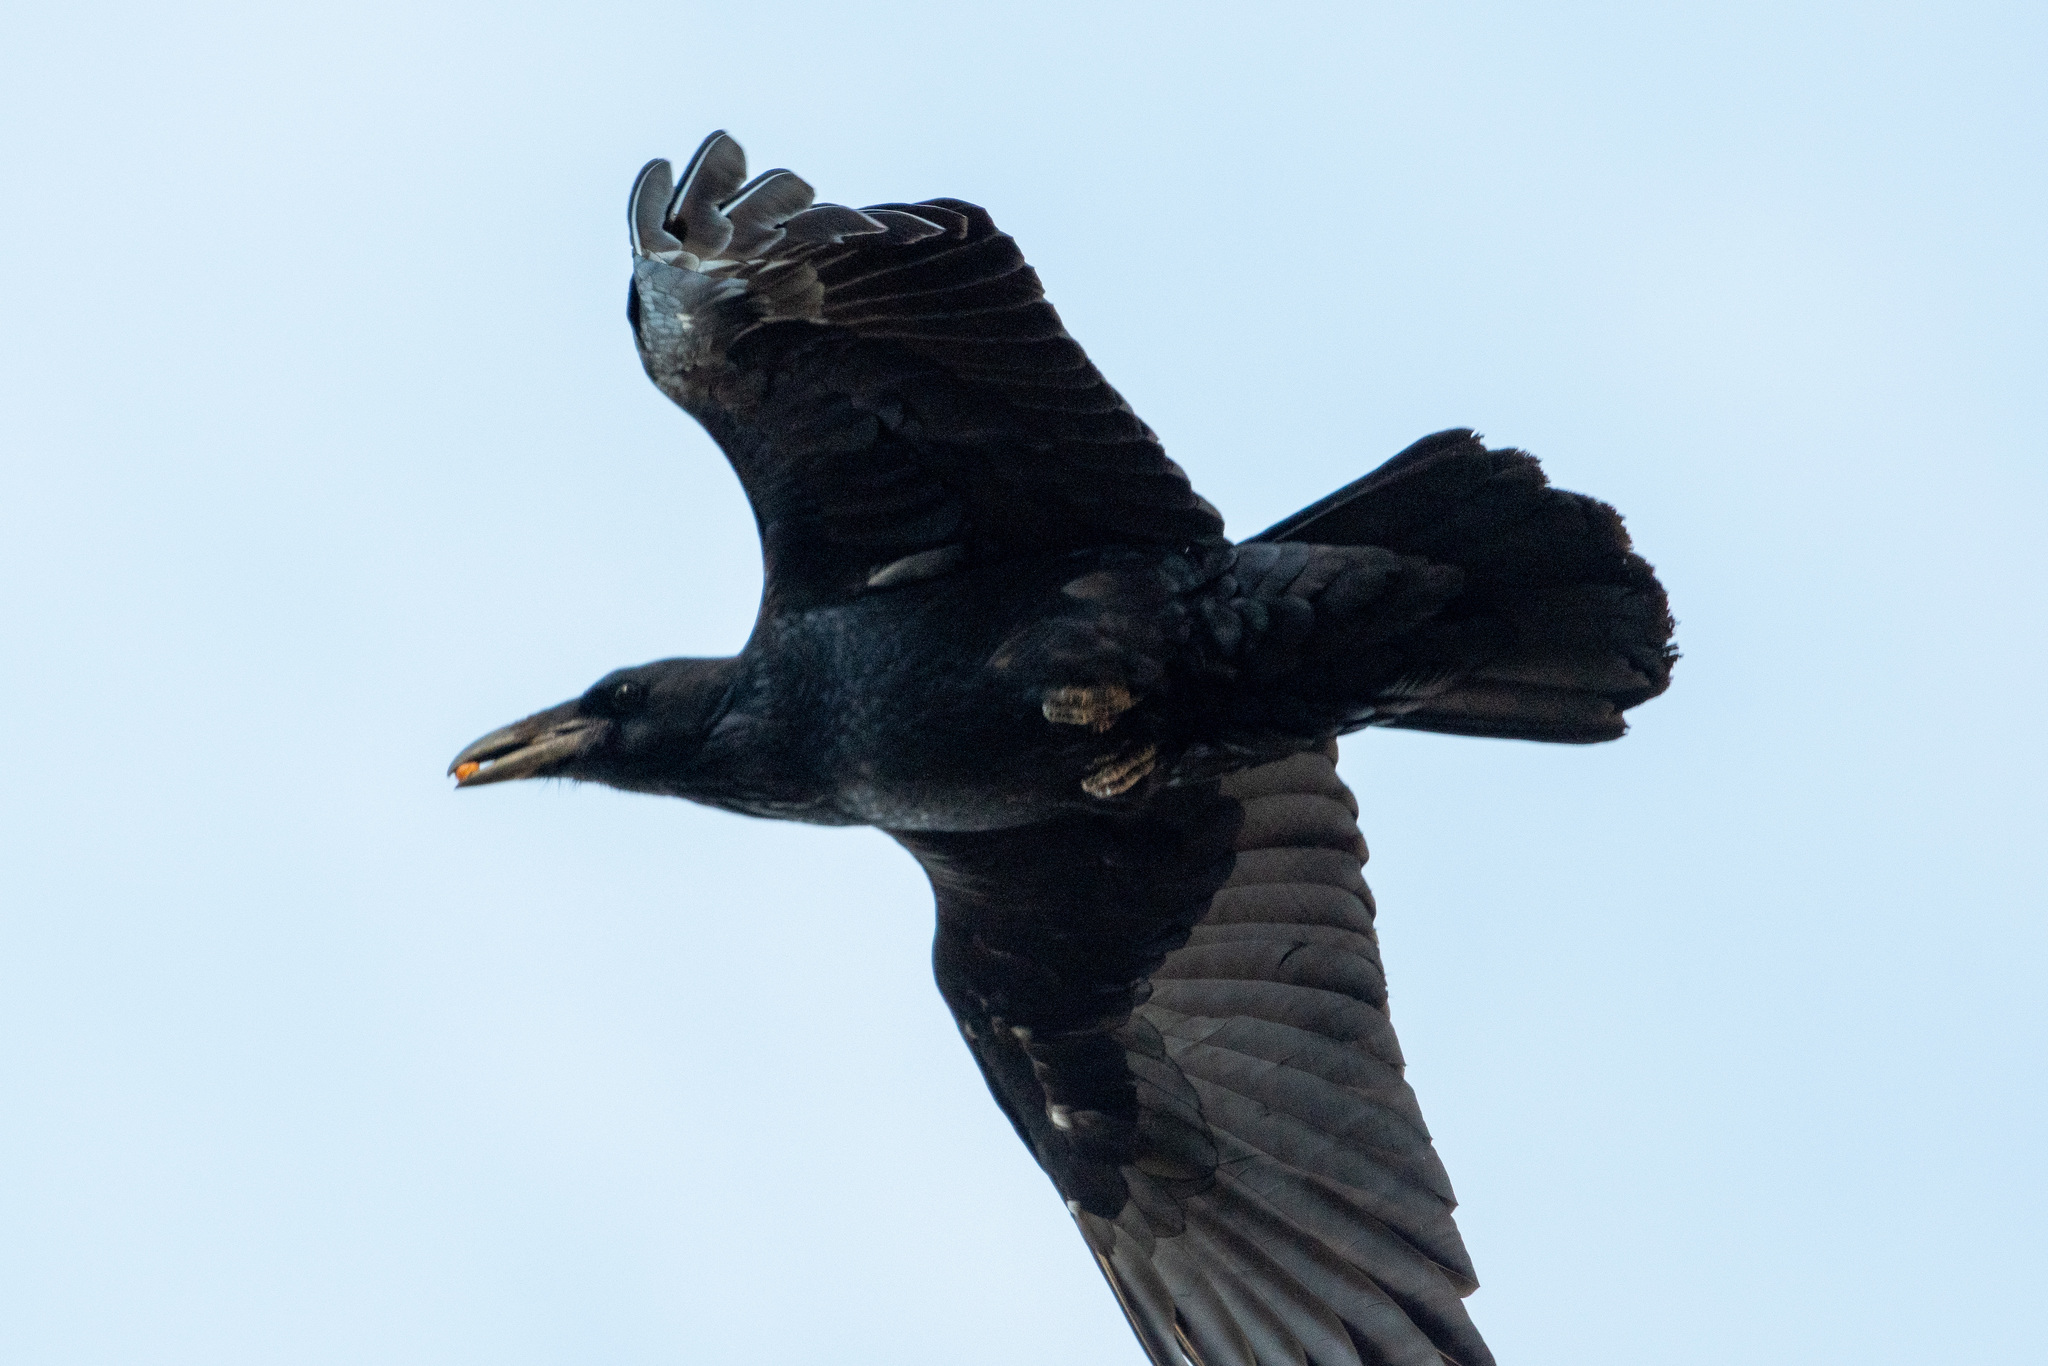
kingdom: Animalia
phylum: Chordata
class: Aves
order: Passeriformes
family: Corvidae
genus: Corvus
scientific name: Corvus corax
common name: Common raven
